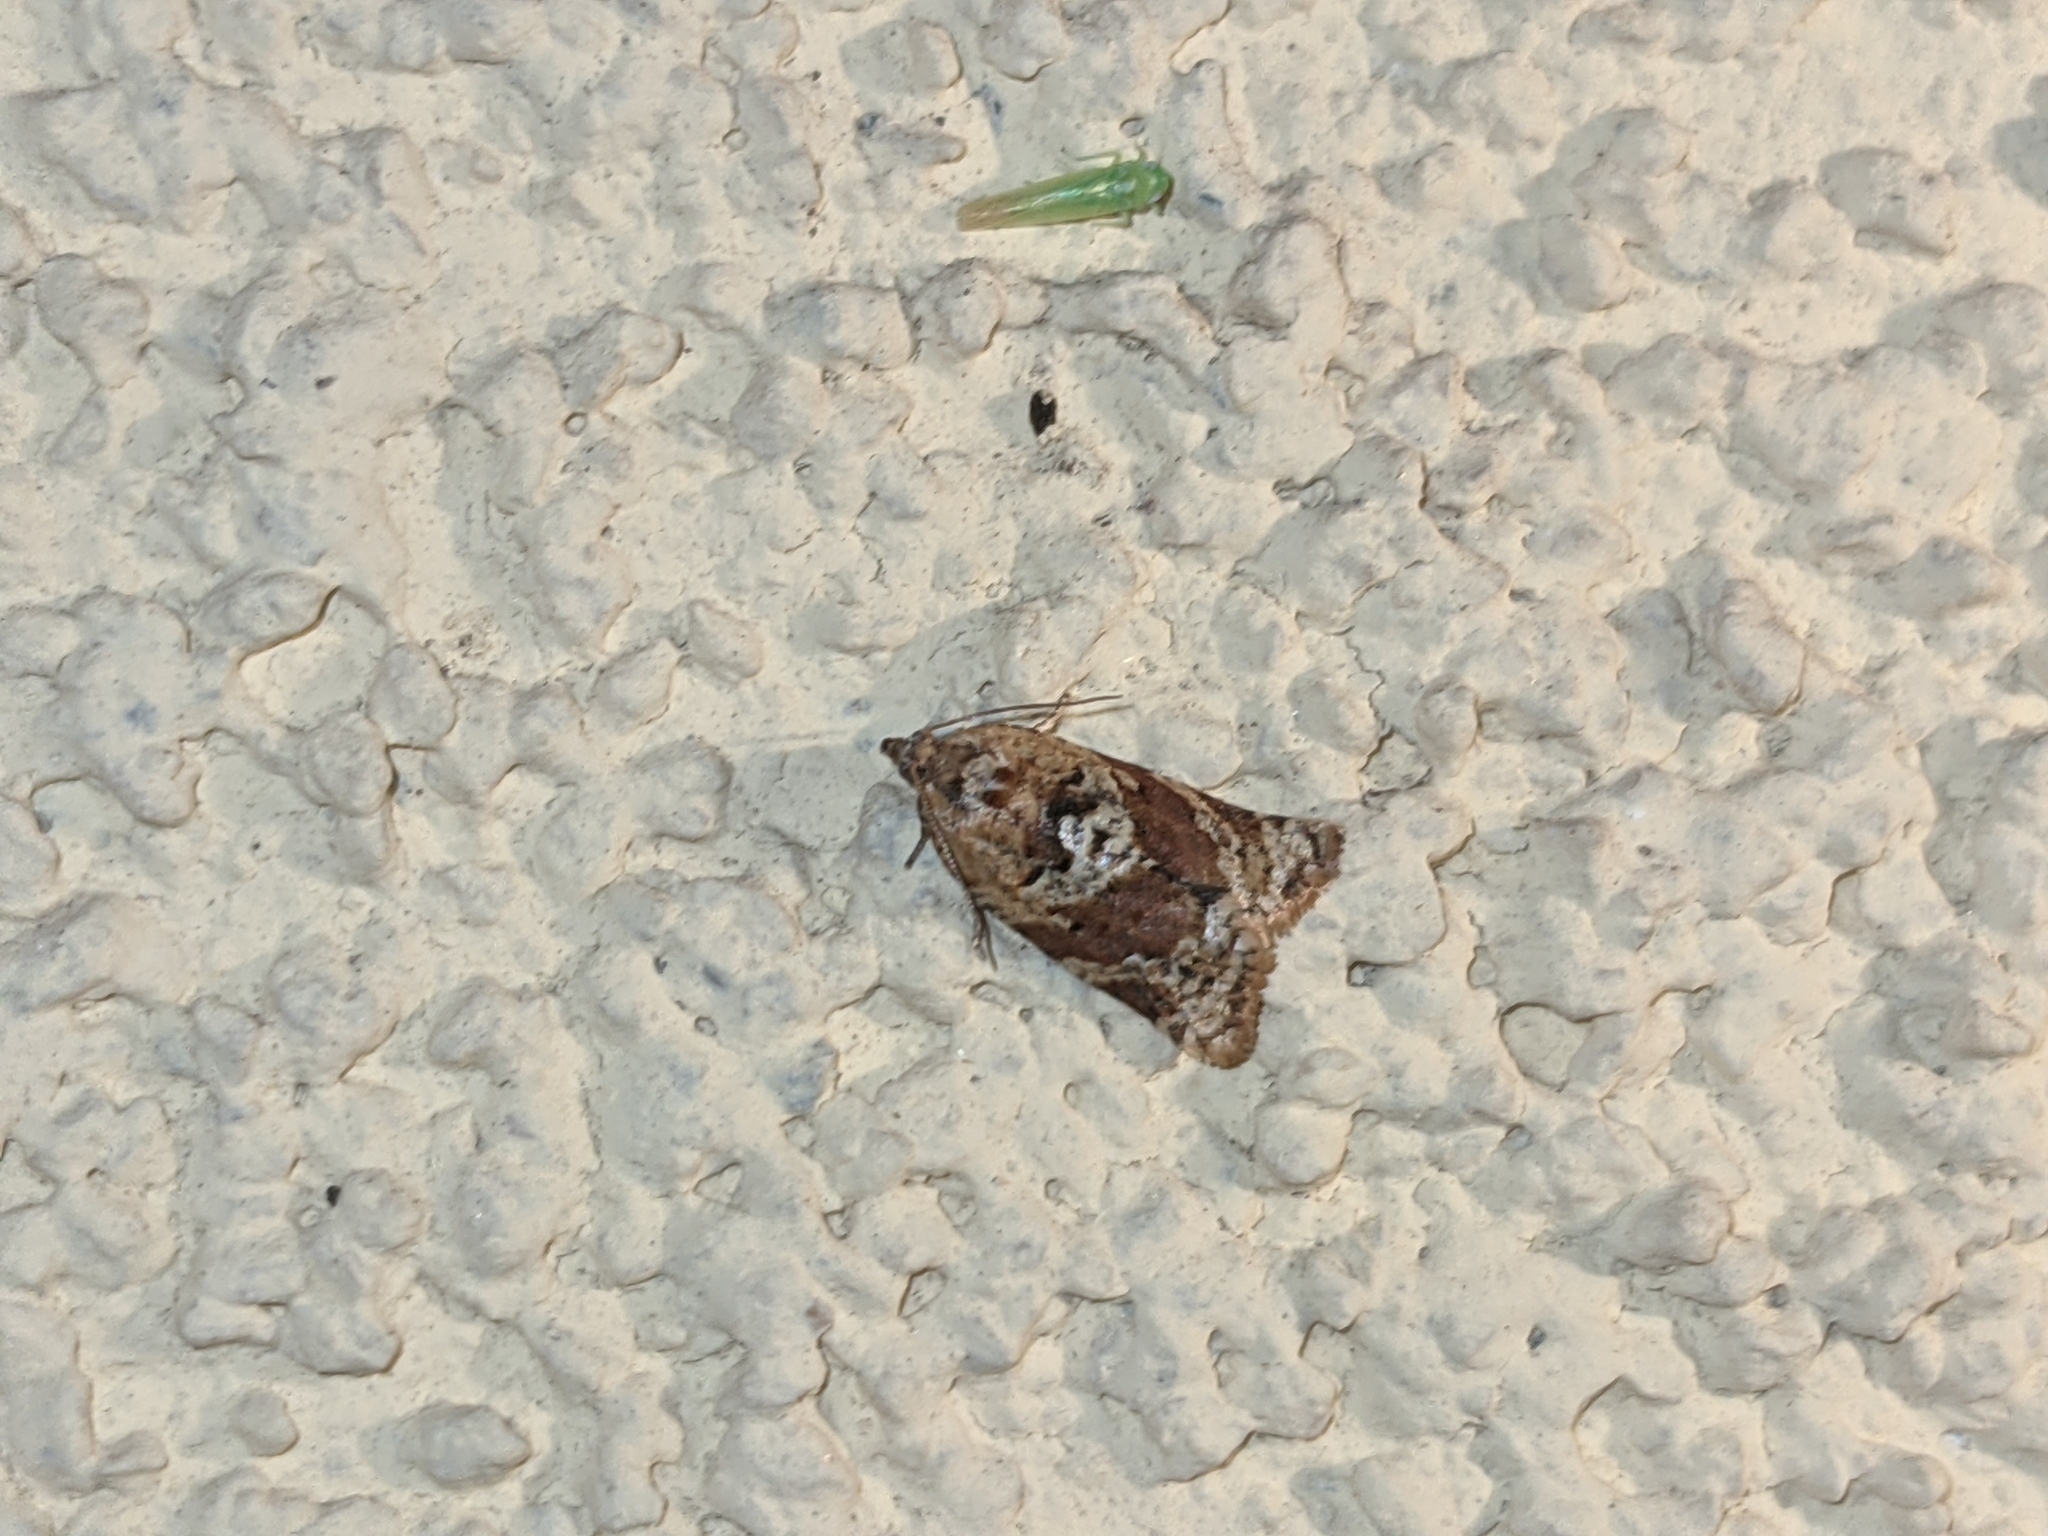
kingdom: Animalia
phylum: Arthropoda
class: Insecta
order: Lepidoptera
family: Tortricidae
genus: Argyrotaenia
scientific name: Argyrotaenia ljungiana
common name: Heather twist
